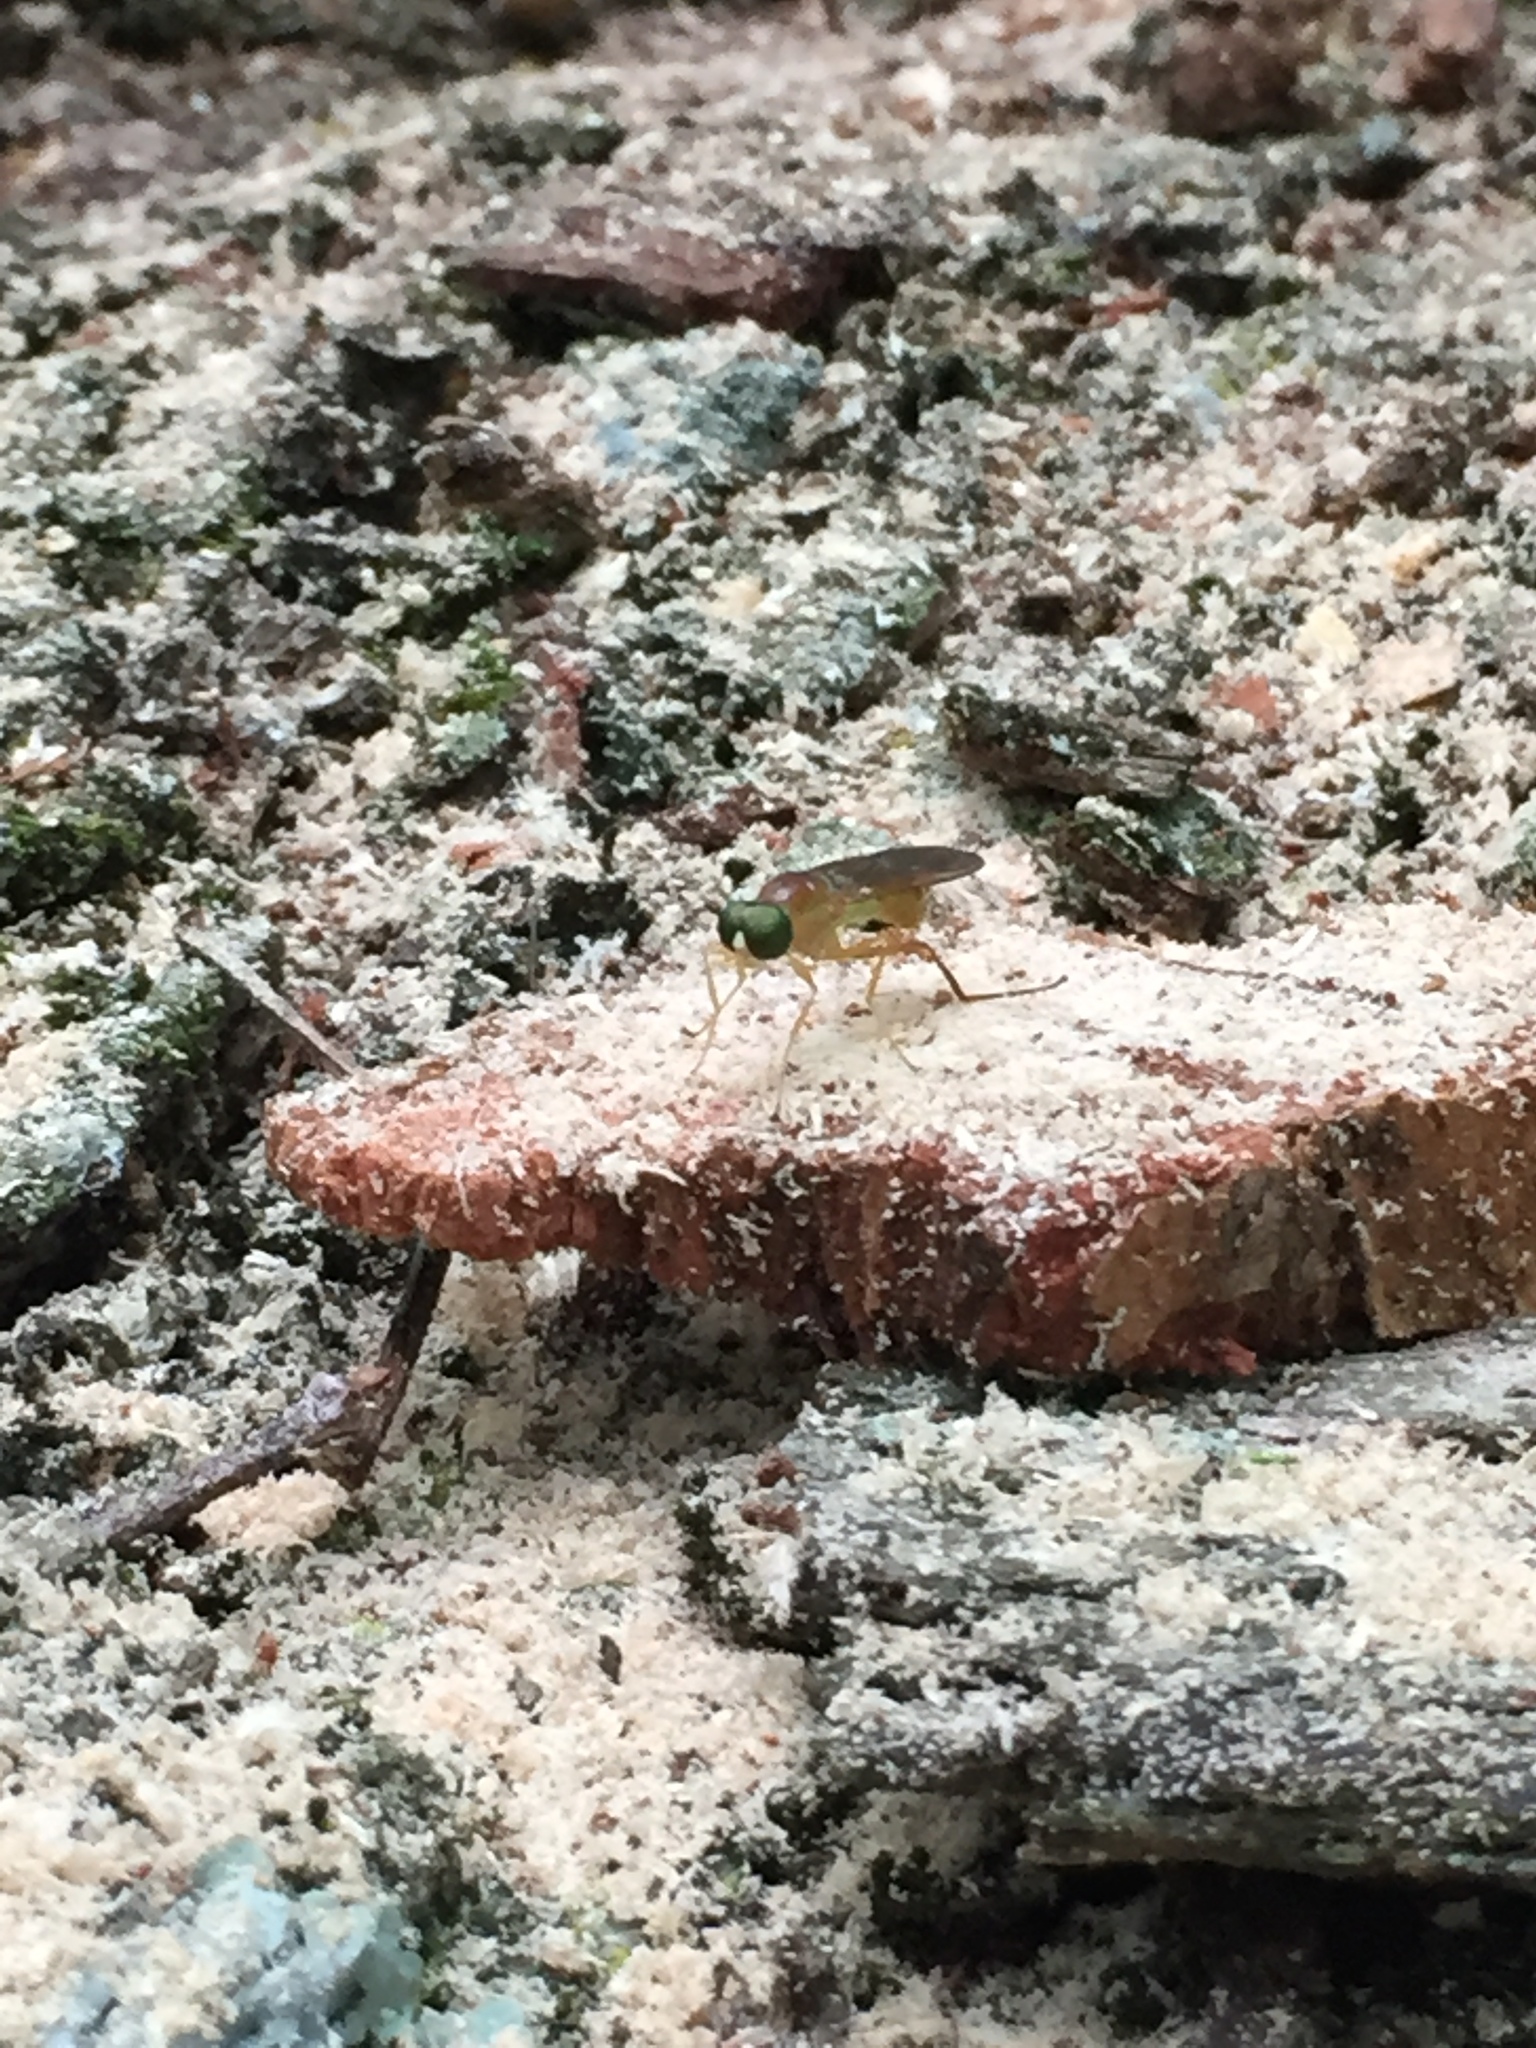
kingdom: Animalia
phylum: Arthropoda
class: Insecta
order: Diptera
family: Stratiomyidae
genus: Ptecticus
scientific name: Ptecticus trivittatus
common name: Compost fly
